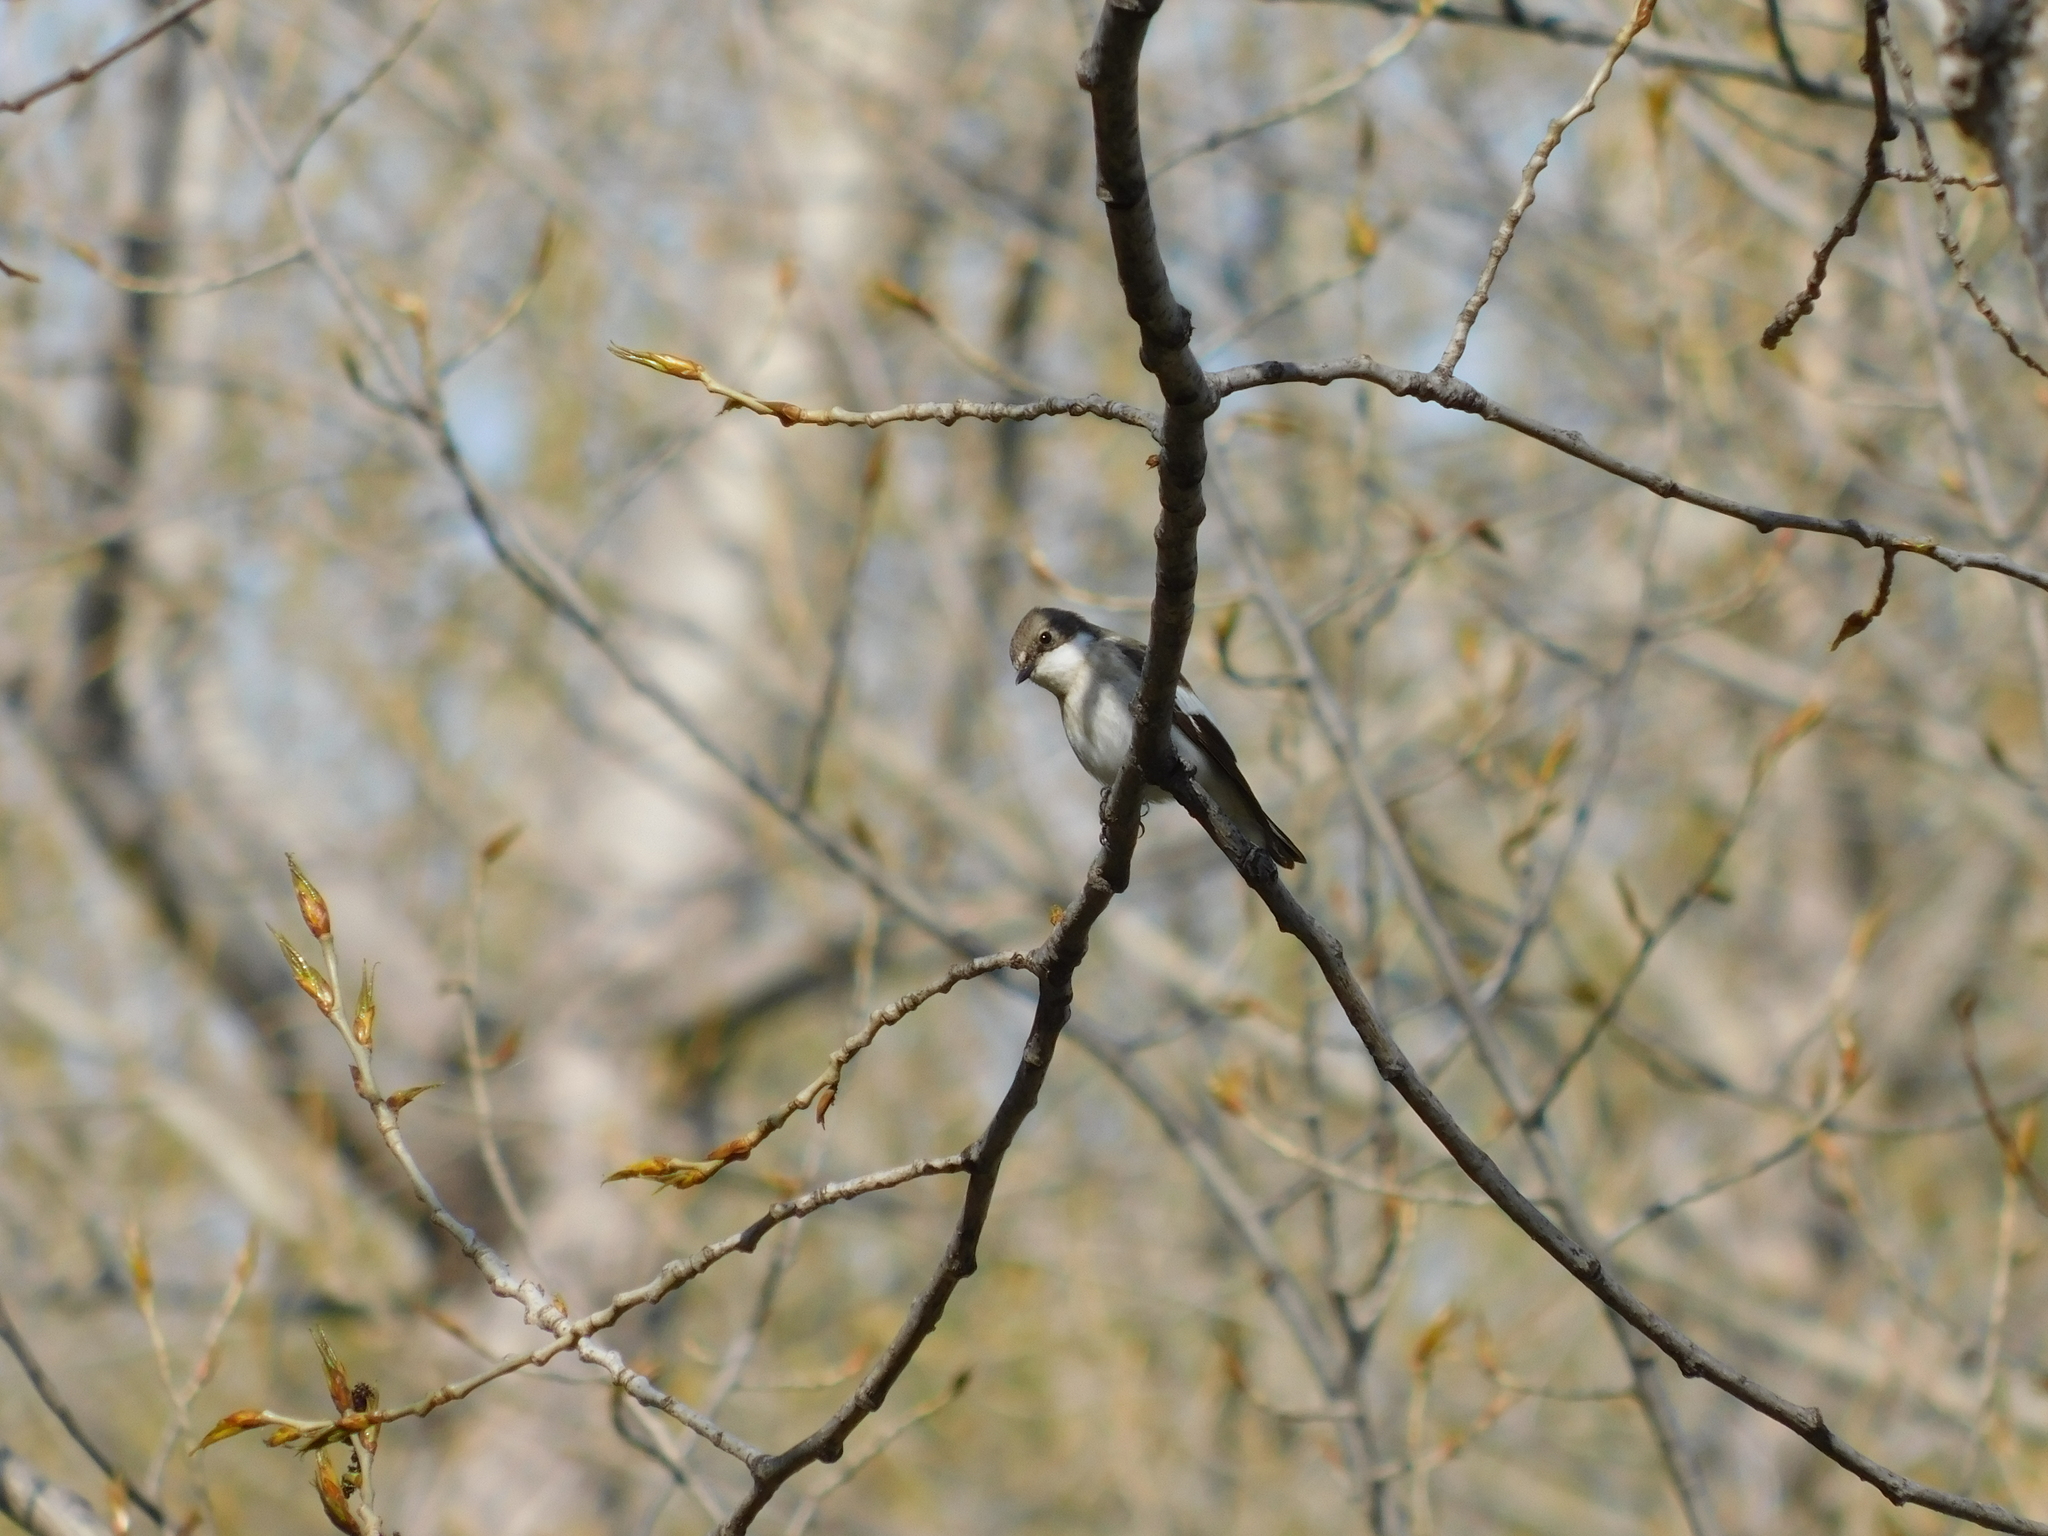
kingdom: Animalia
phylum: Chordata
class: Aves
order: Passeriformes
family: Muscicapidae
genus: Ficedula
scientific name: Ficedula hypoleuca
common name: European pied flycatcher
